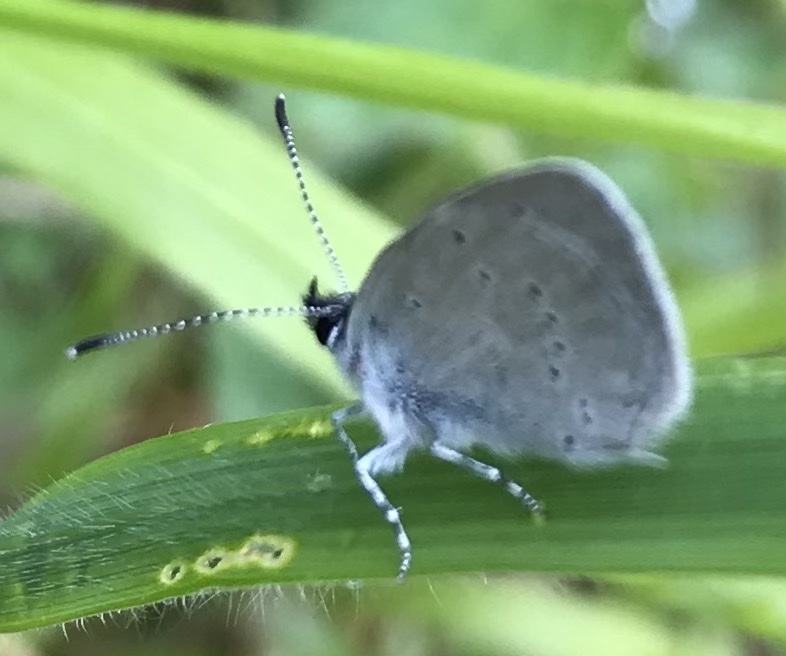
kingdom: Animalia
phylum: Arthropoda
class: Insecta
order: Lepidoptera
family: Lycaenidae
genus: Cupido
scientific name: Cupido minimus
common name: Small blue
